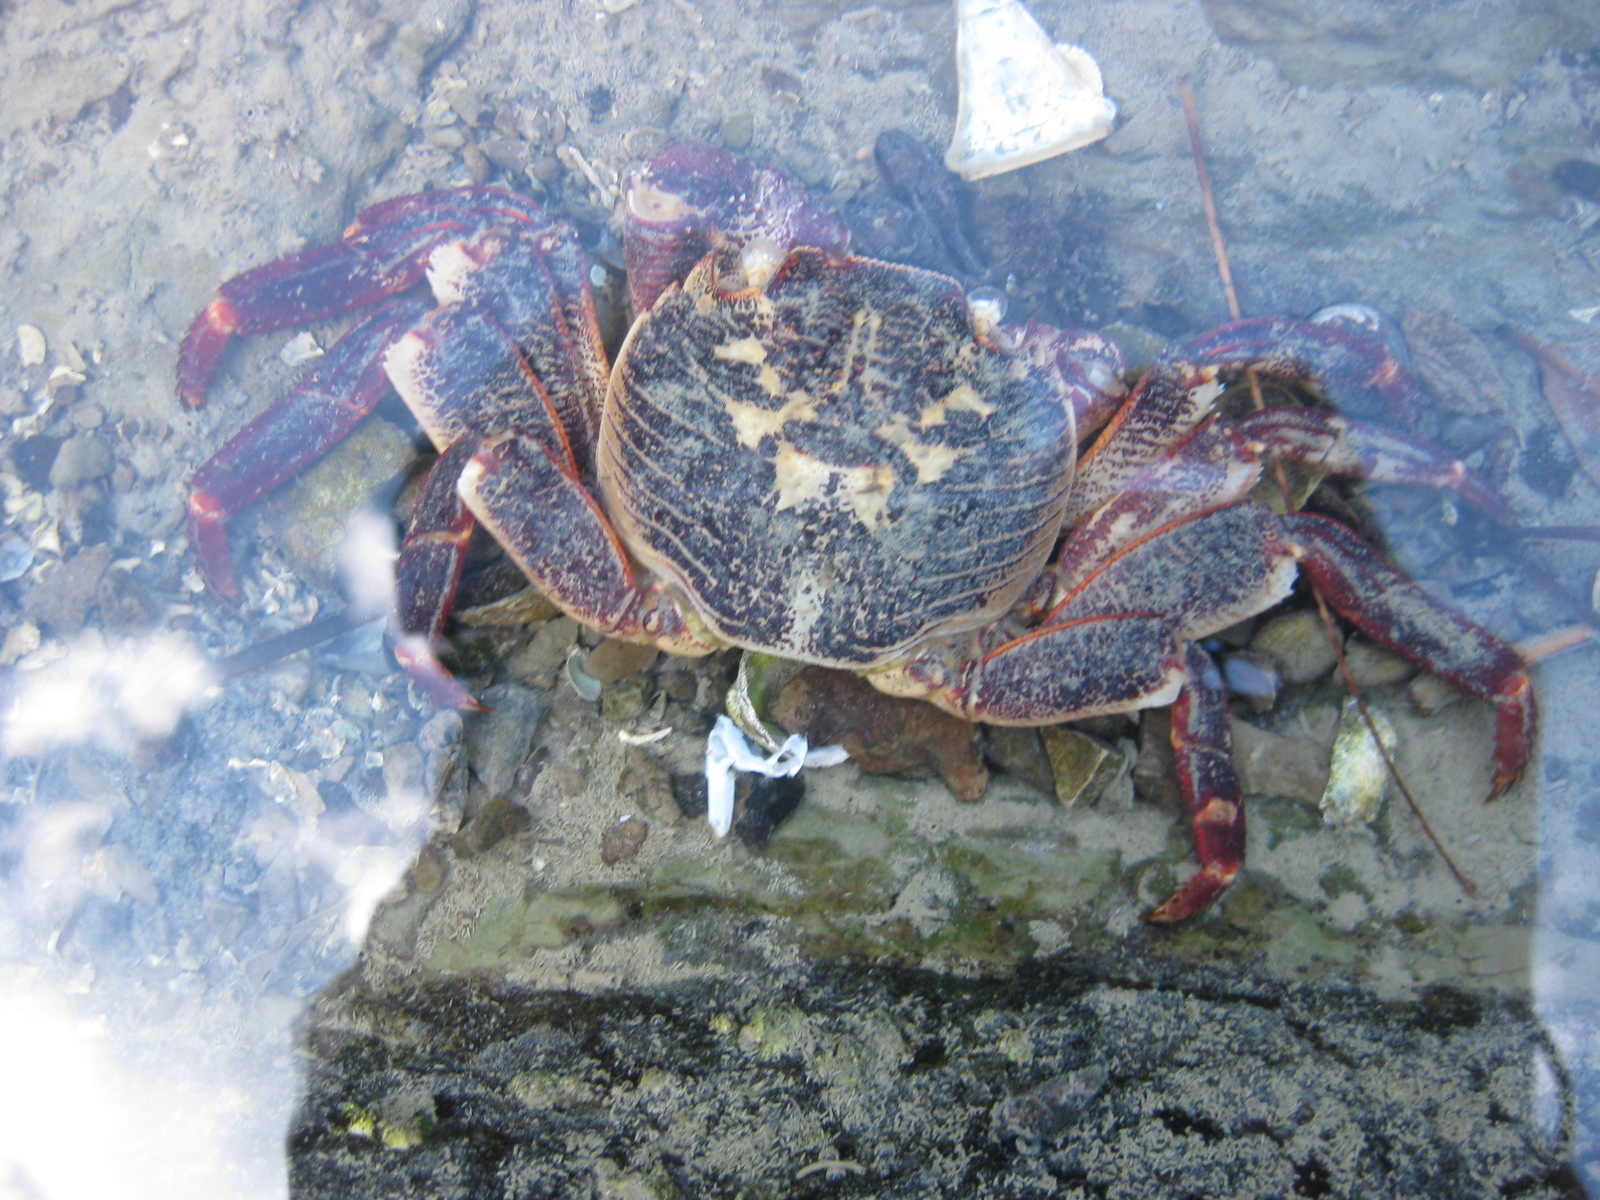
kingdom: Animalia
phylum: Arthropoda
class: Malacostraca
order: Decapoda
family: Grapsidae
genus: Leptograpsus
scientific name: Leptograpsus variegatus
